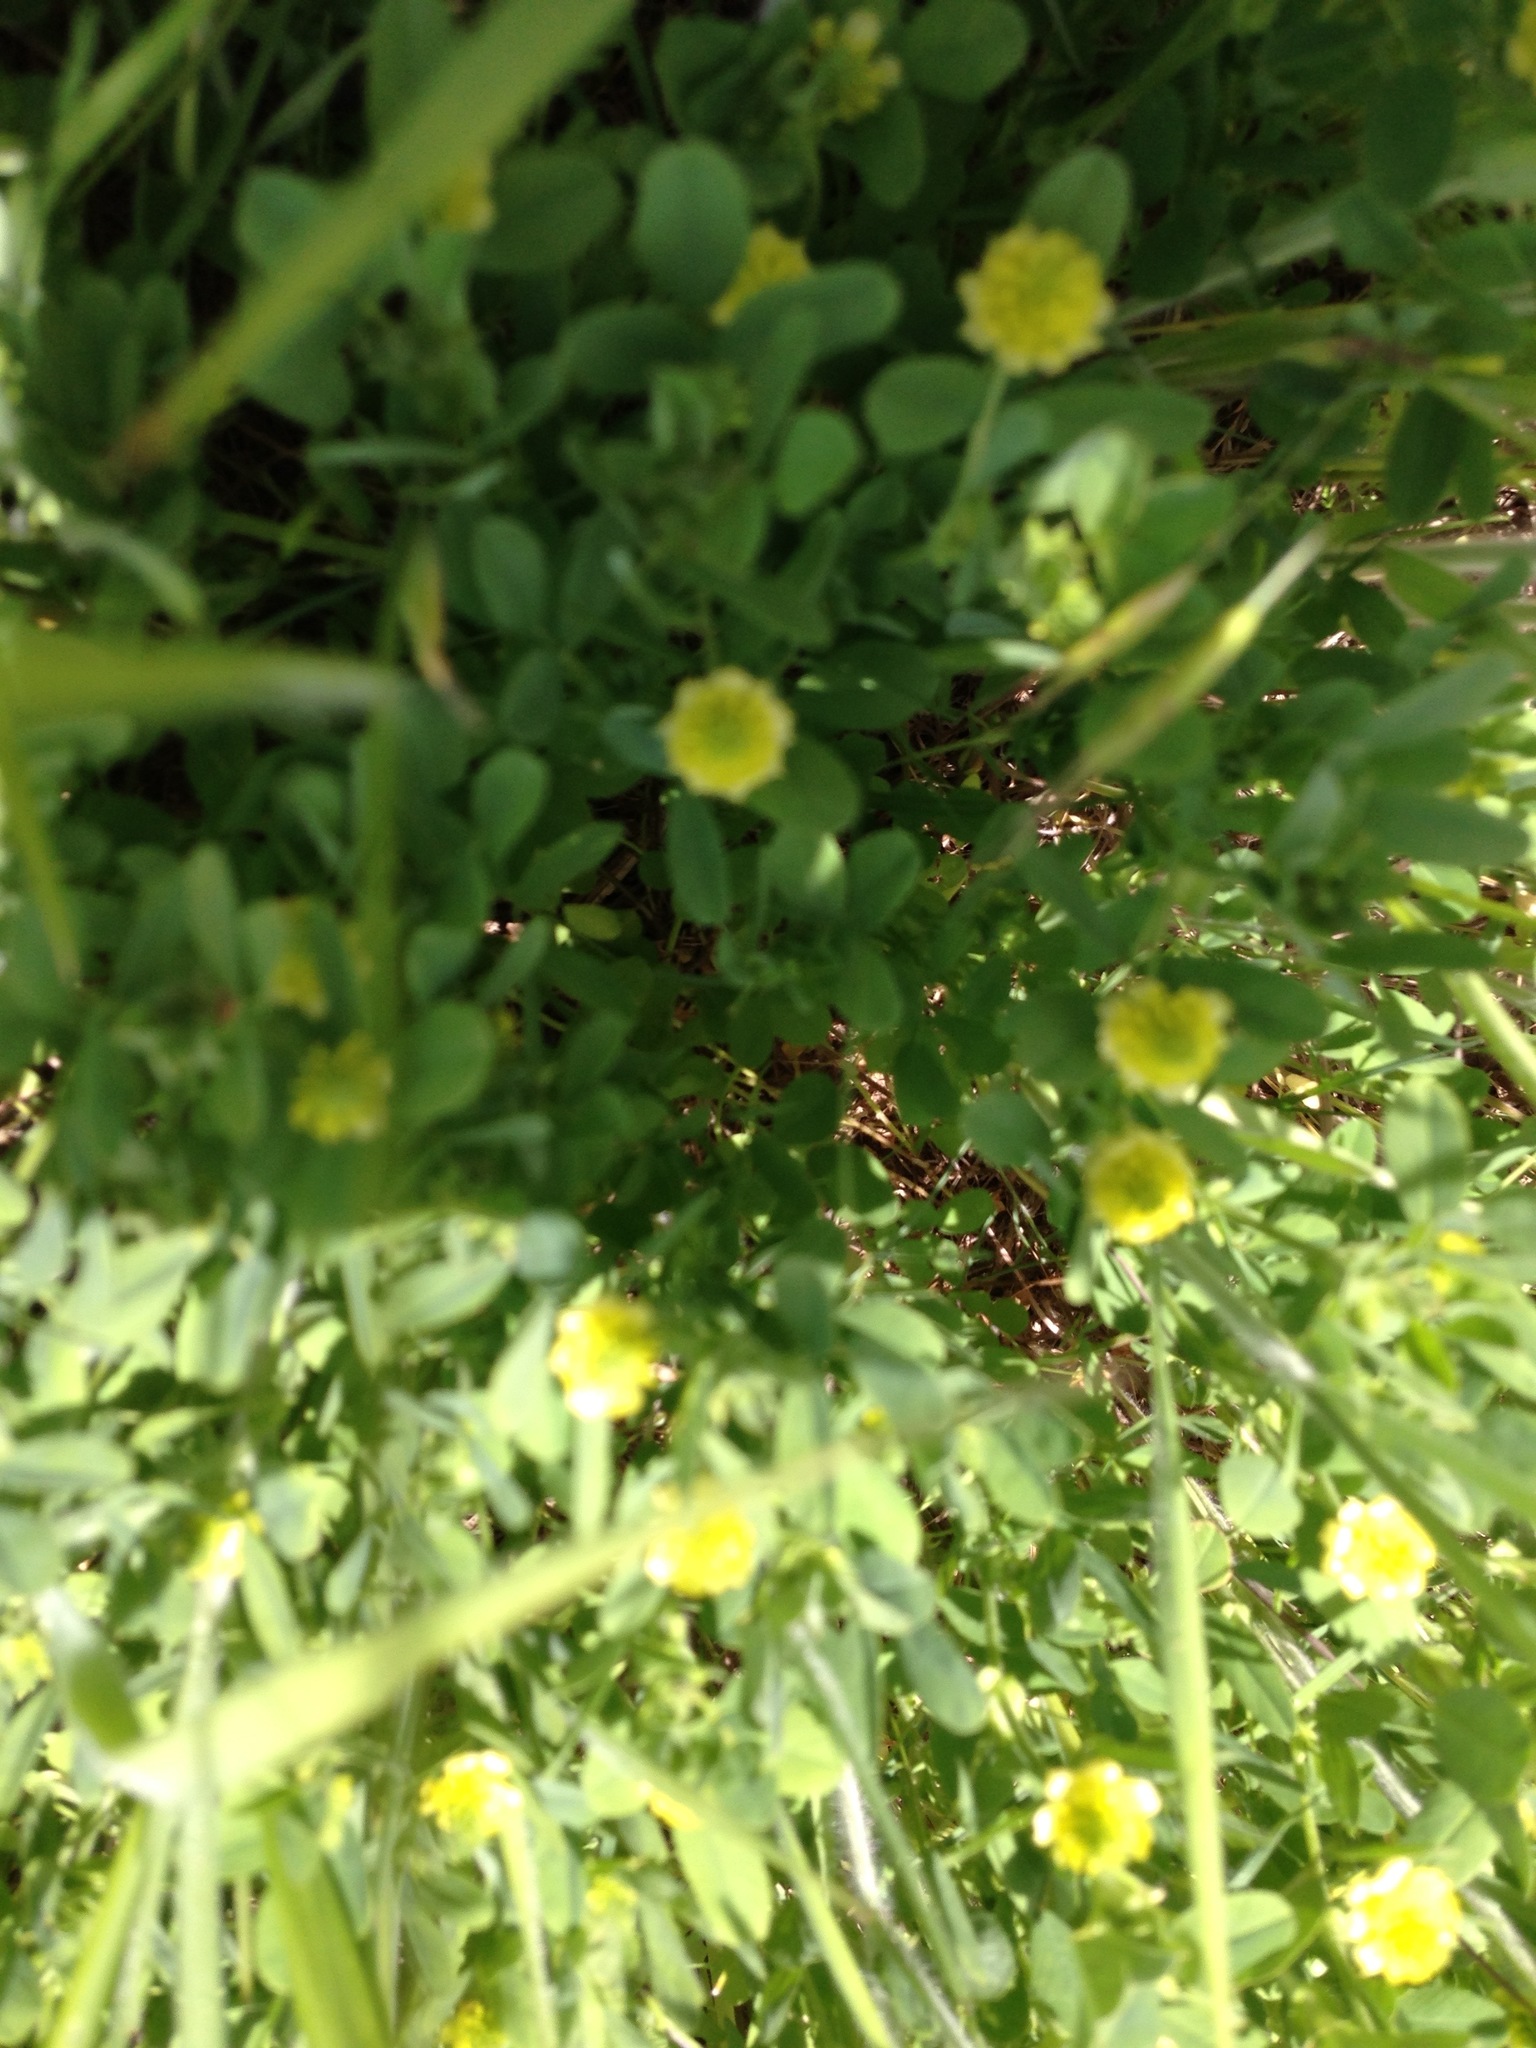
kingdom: Plantae
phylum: Tracheophyta
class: Magnoliopsida
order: Fabales
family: Fabaceae
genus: Trifolium
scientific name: Trifolium campestre
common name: Field clover
